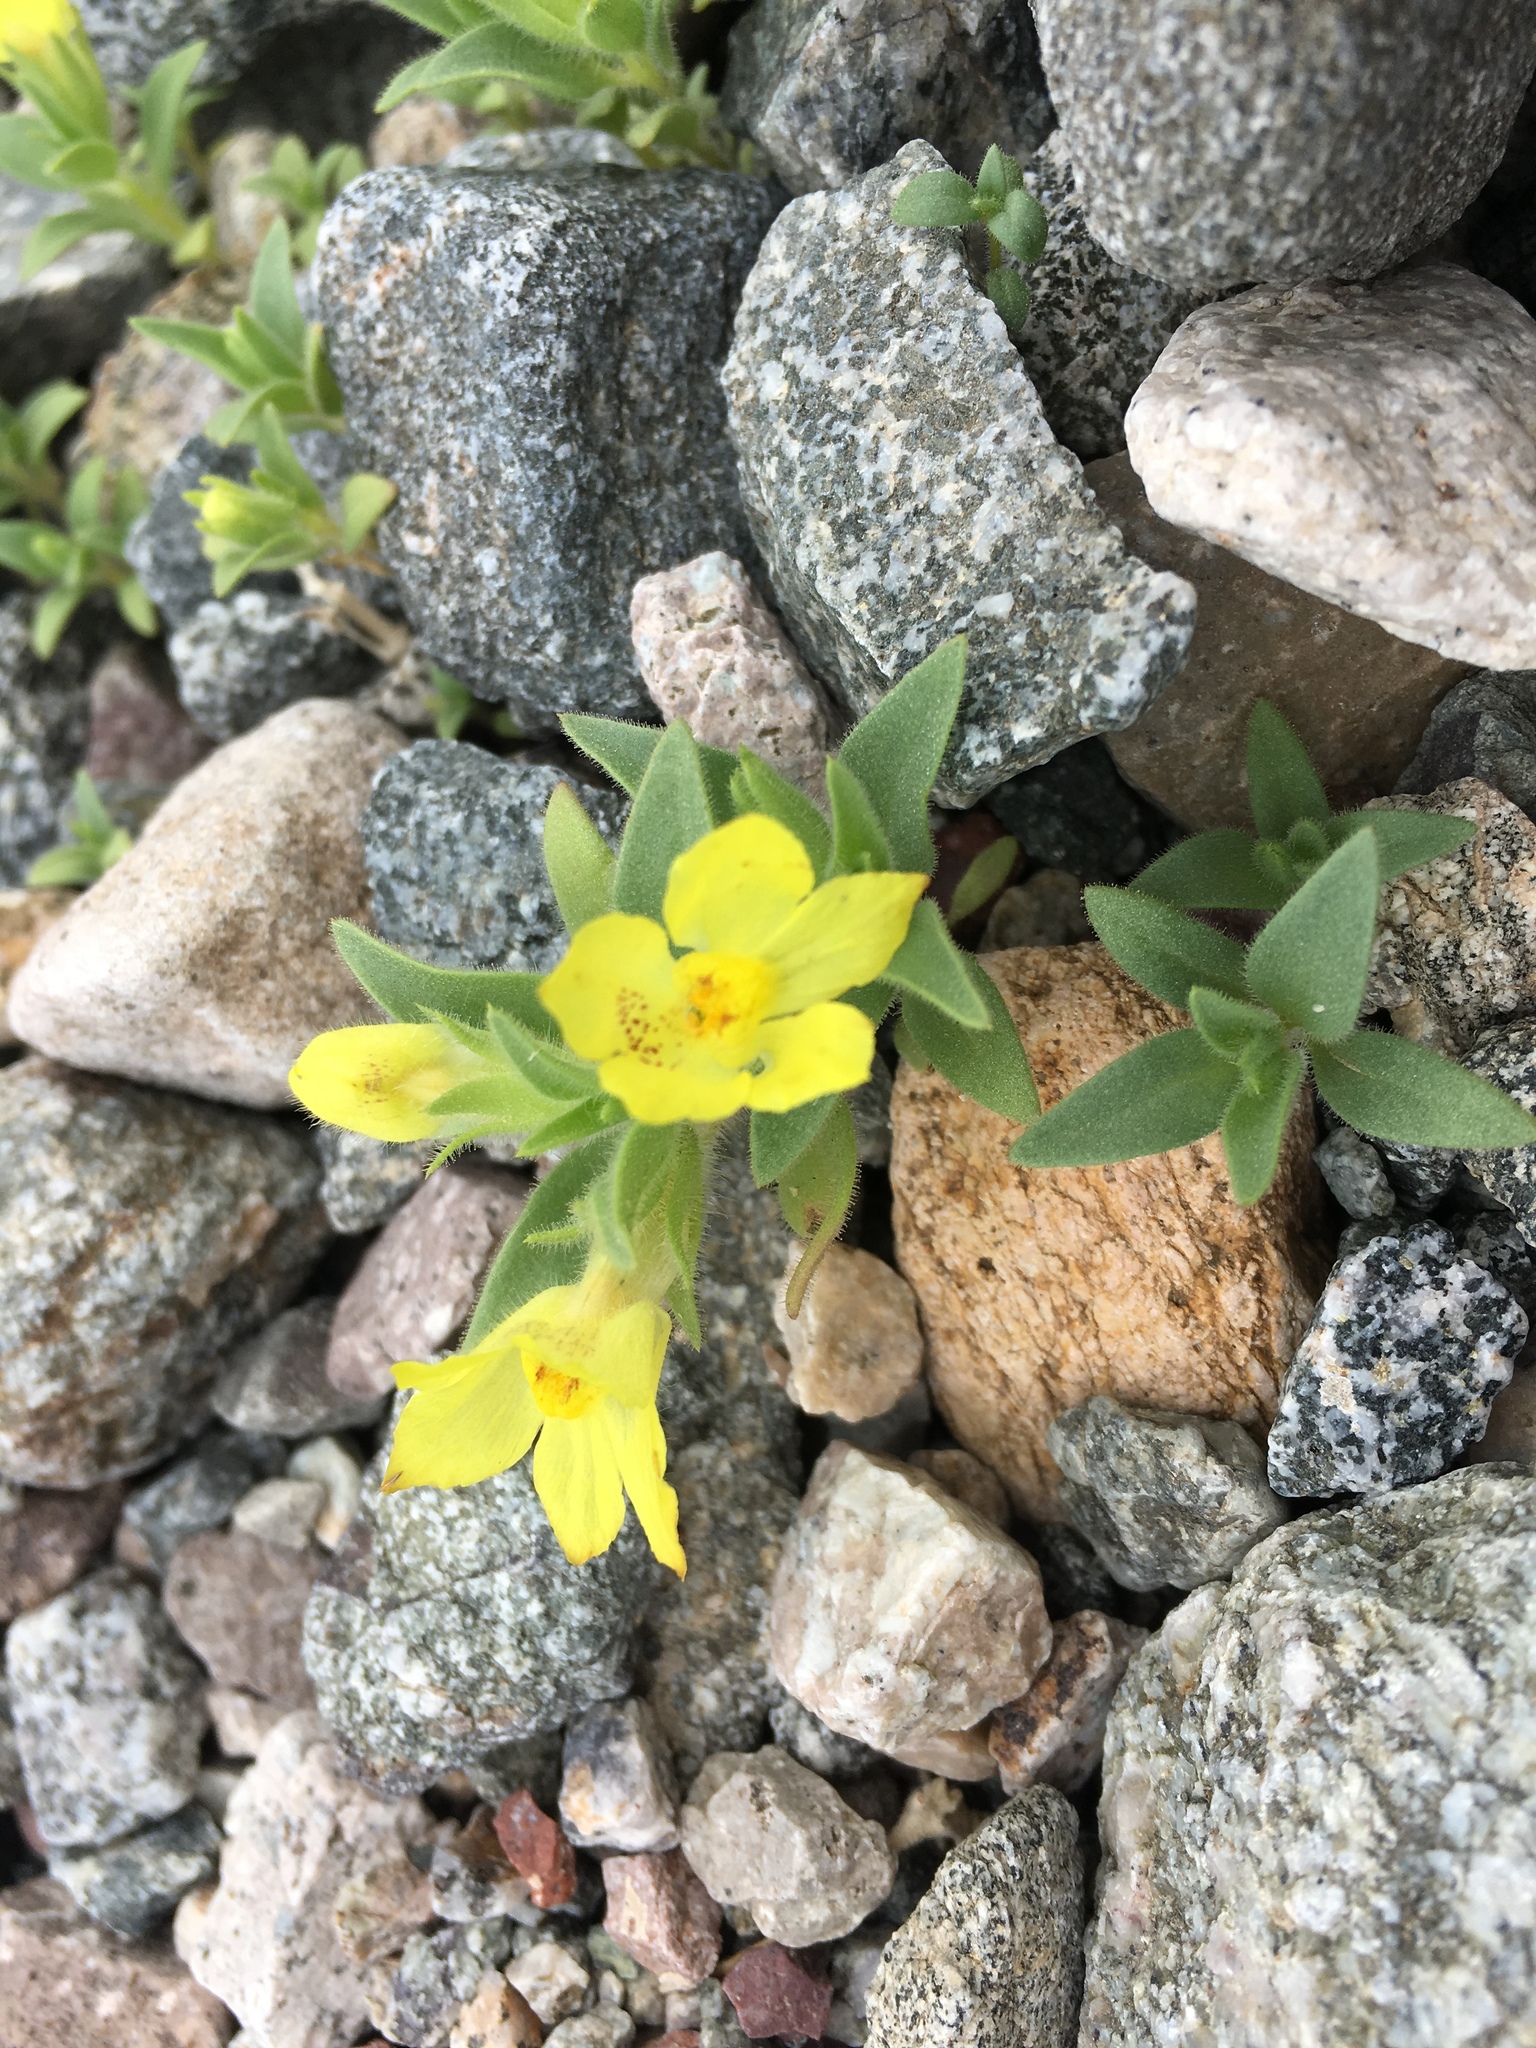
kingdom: Plantae
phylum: Tracheophyta
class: Magnoliopsida
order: Lamiales
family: Plantaginaceae
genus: Mohavea
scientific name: Mohavea breviflora
